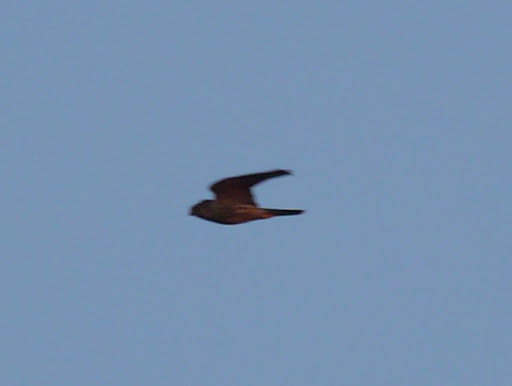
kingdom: Animalia
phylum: Chordata
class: Aves
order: Falconiformes
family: Falconidae
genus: Falco
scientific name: Falco columbarius
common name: Merlin
